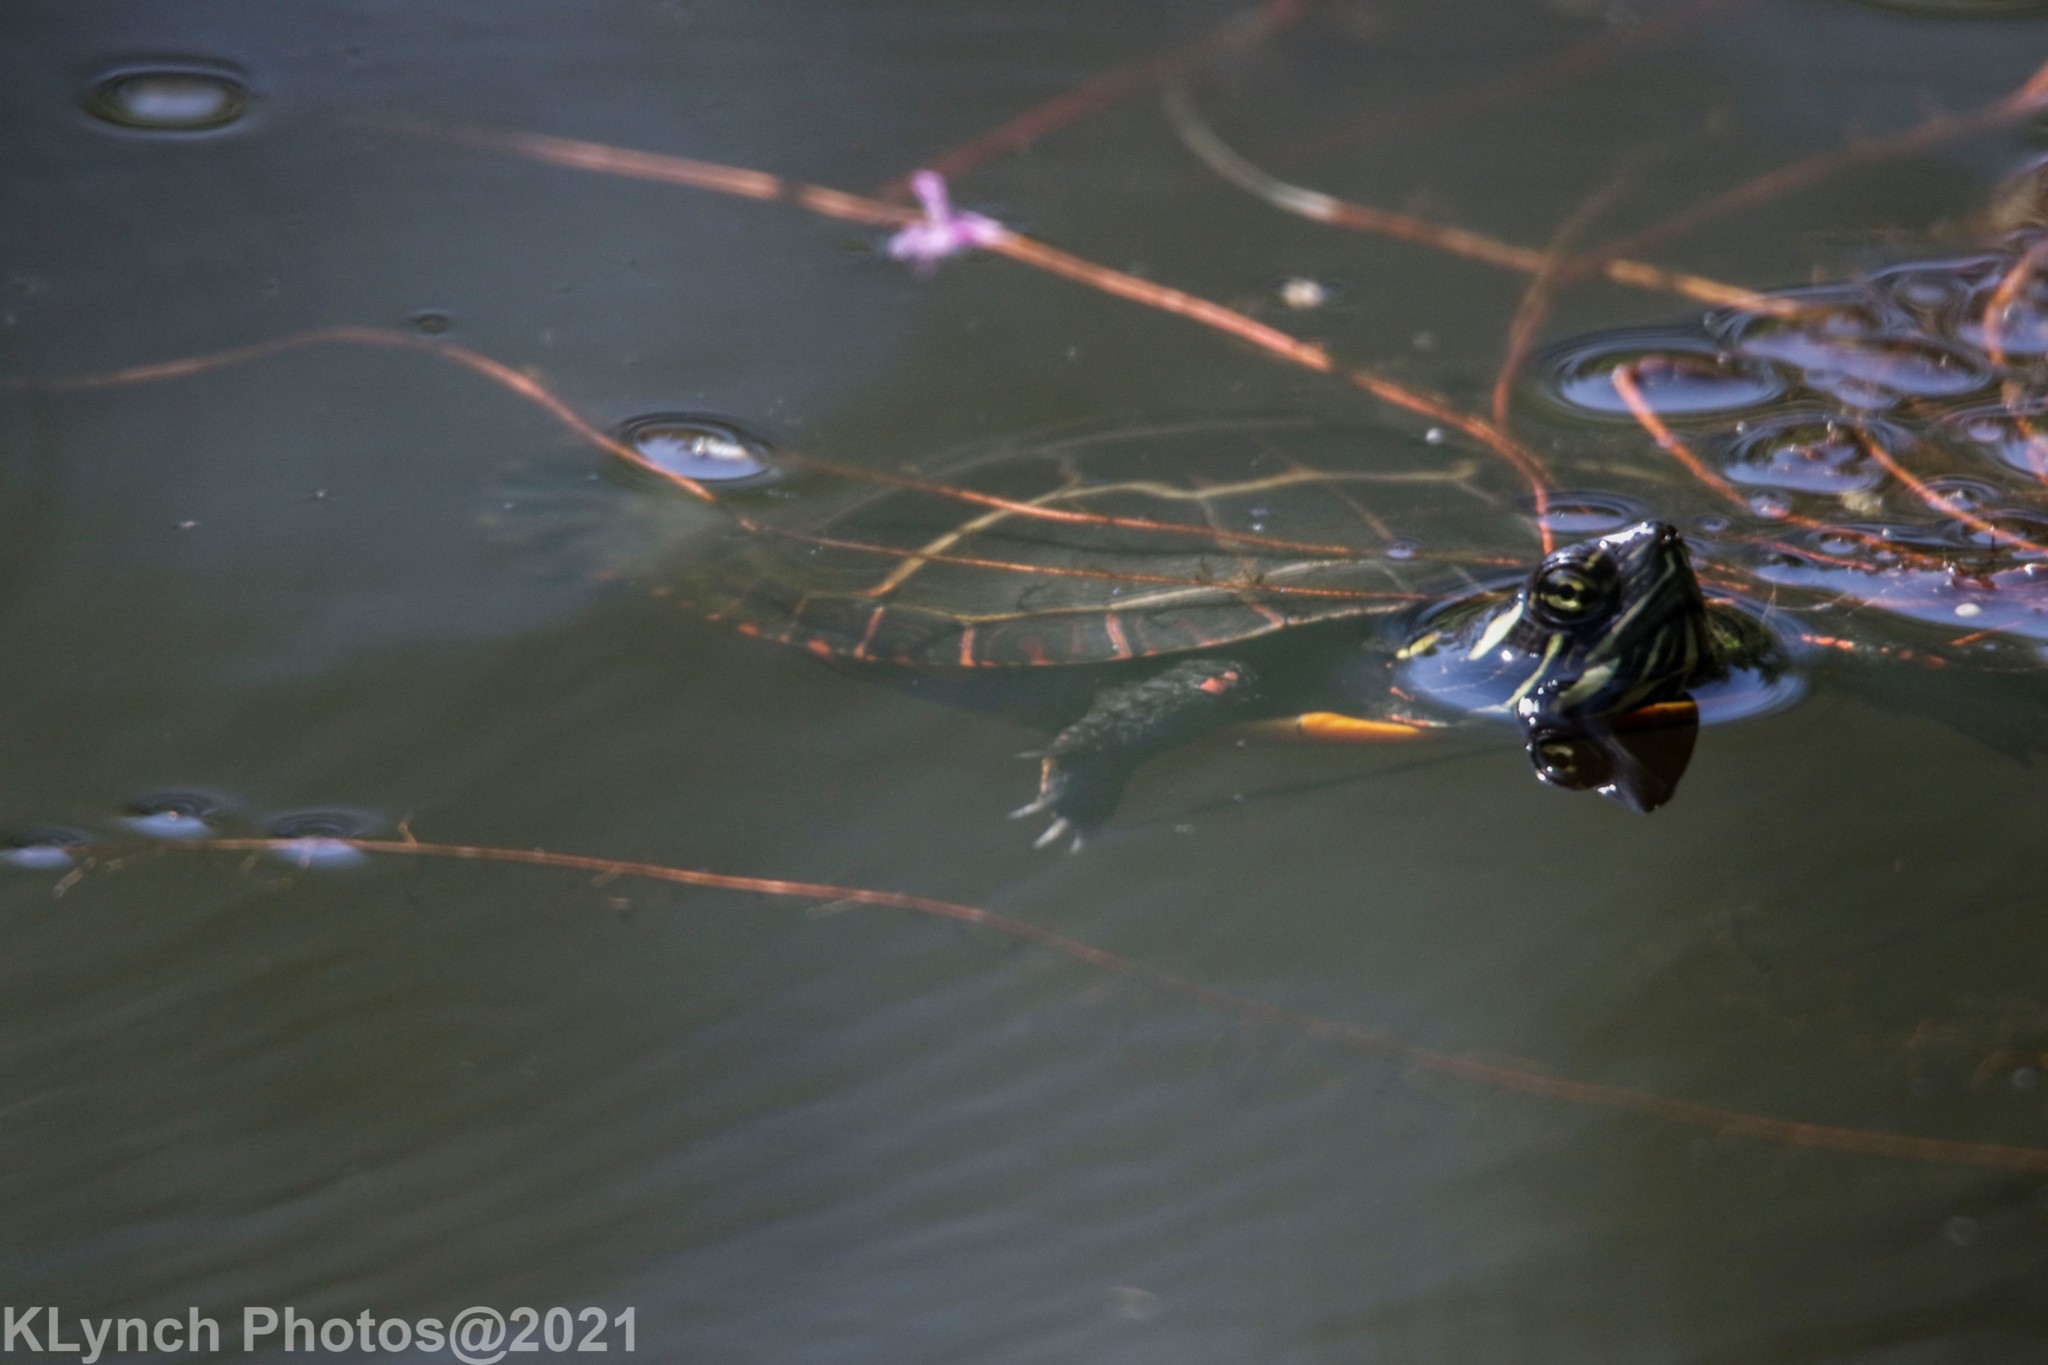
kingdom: Animalia
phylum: Chordata
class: Testudines
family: Emydidae
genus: Chrysemys
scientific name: Chrysemys picta
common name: Painted turtle
